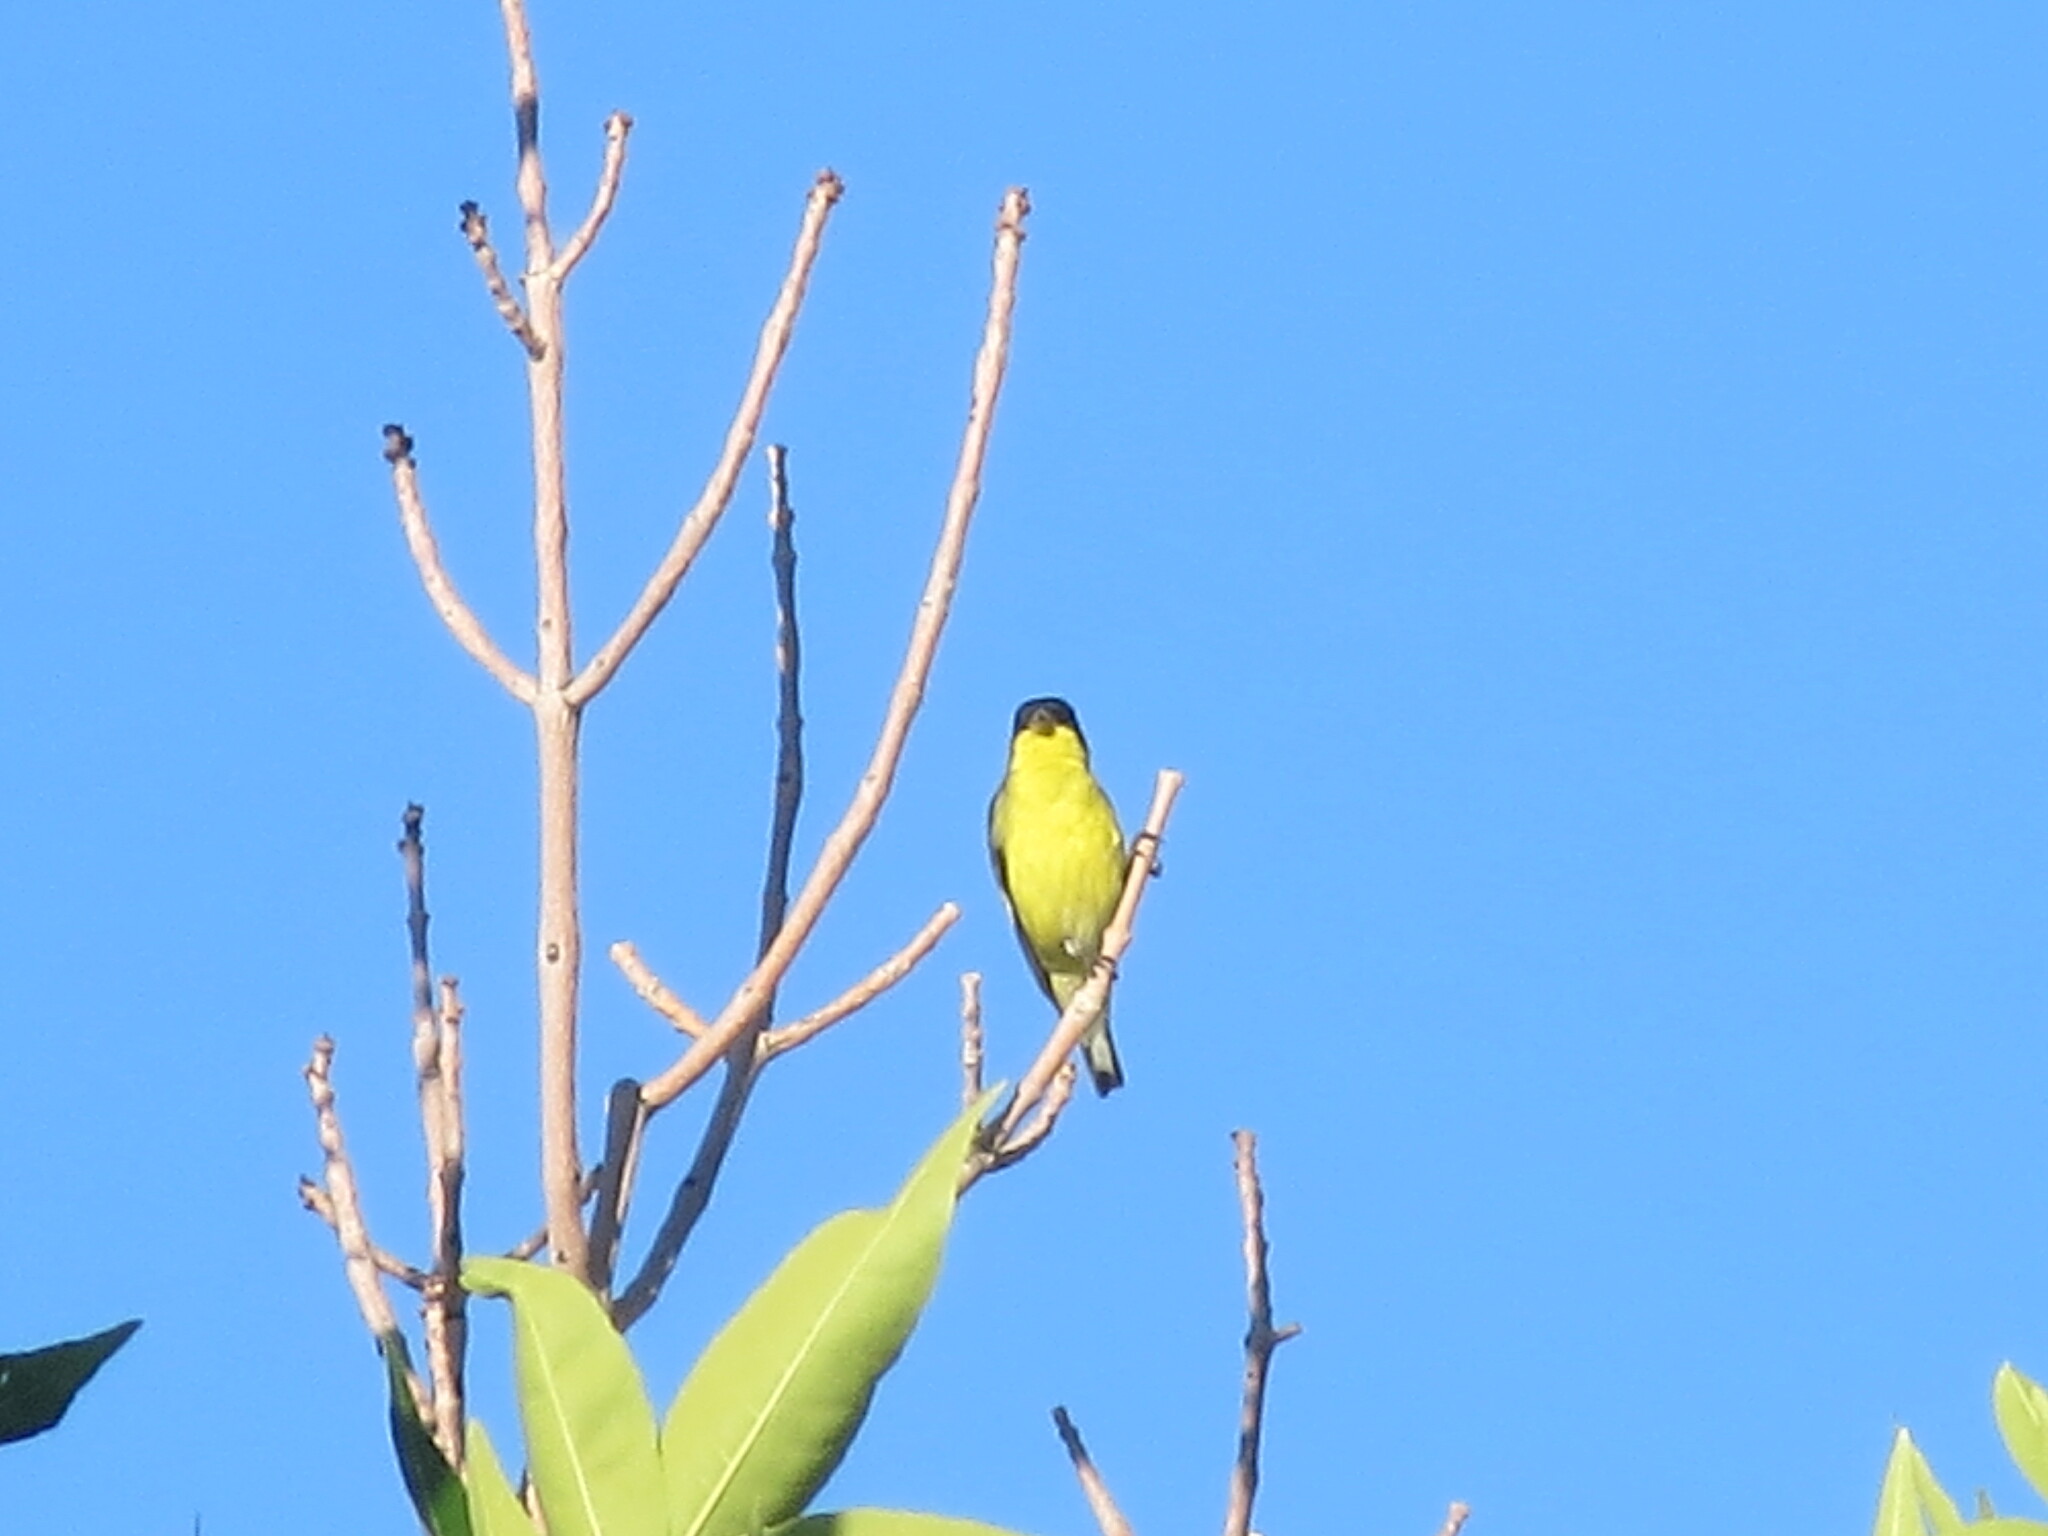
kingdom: Animalia
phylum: Chordata
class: Aves
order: Passeriformes
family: Fringillidae
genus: Spinus
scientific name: Spinus psaltria
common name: Lesser goldfinch
